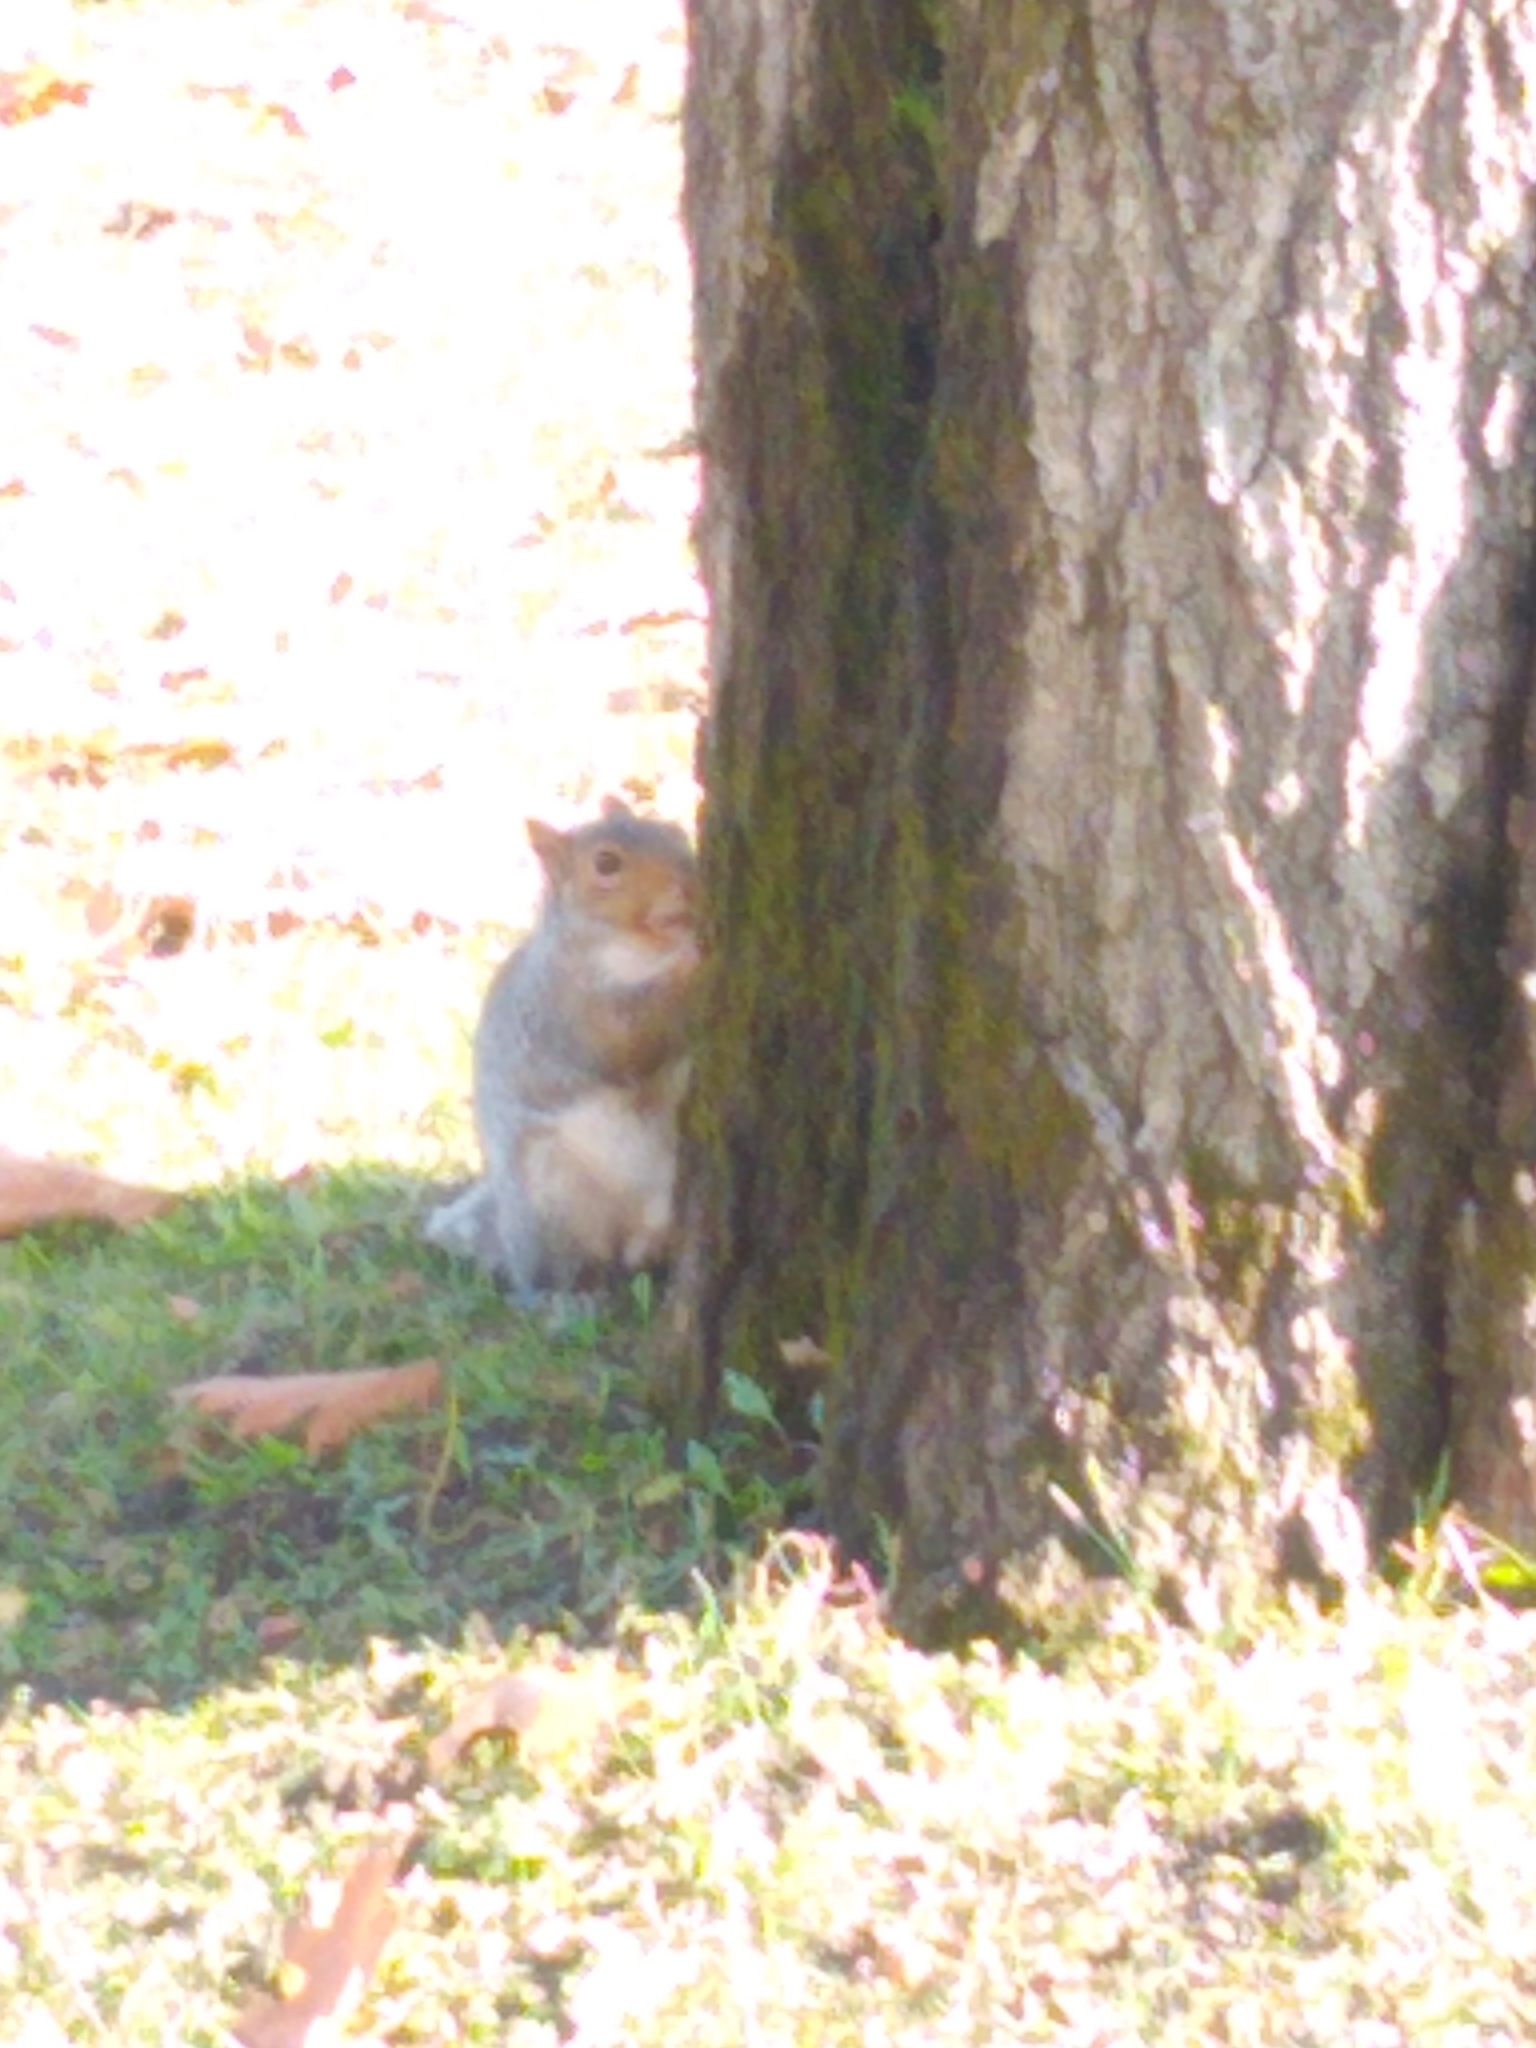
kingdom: Animalia
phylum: Chordata
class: Mammalia
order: Rodentia
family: Sciuridae
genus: Sciurus
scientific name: Sciurus carolinensis
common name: Eastern gray squirrel
